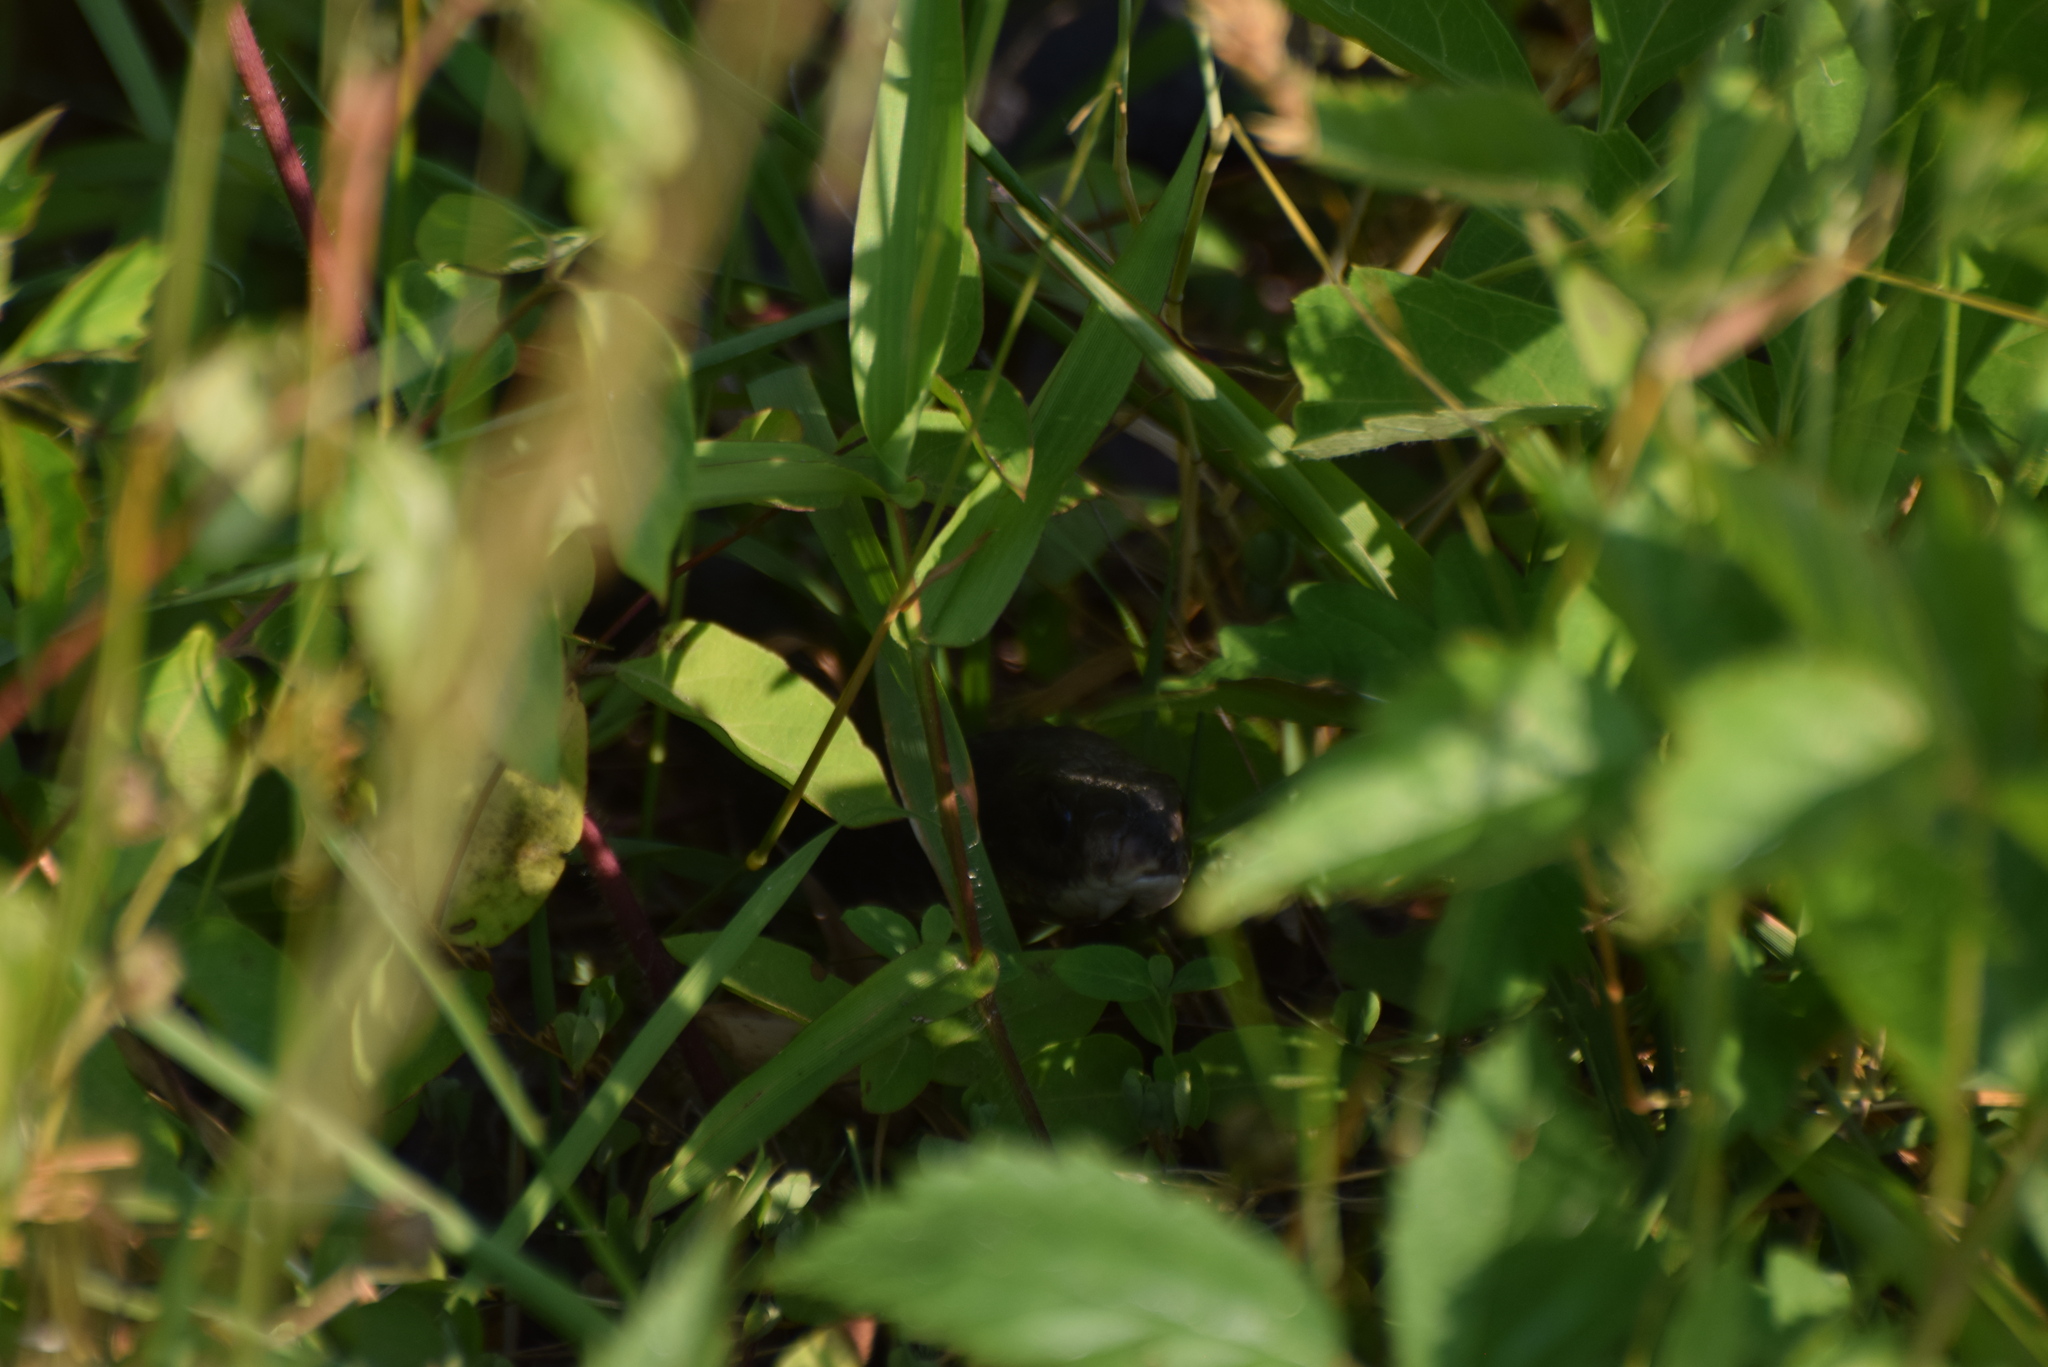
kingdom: Animalia
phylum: Chordata
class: Squamata
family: Colubridae
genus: Coluber
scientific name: Coluber constrictor
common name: Eastern racer
